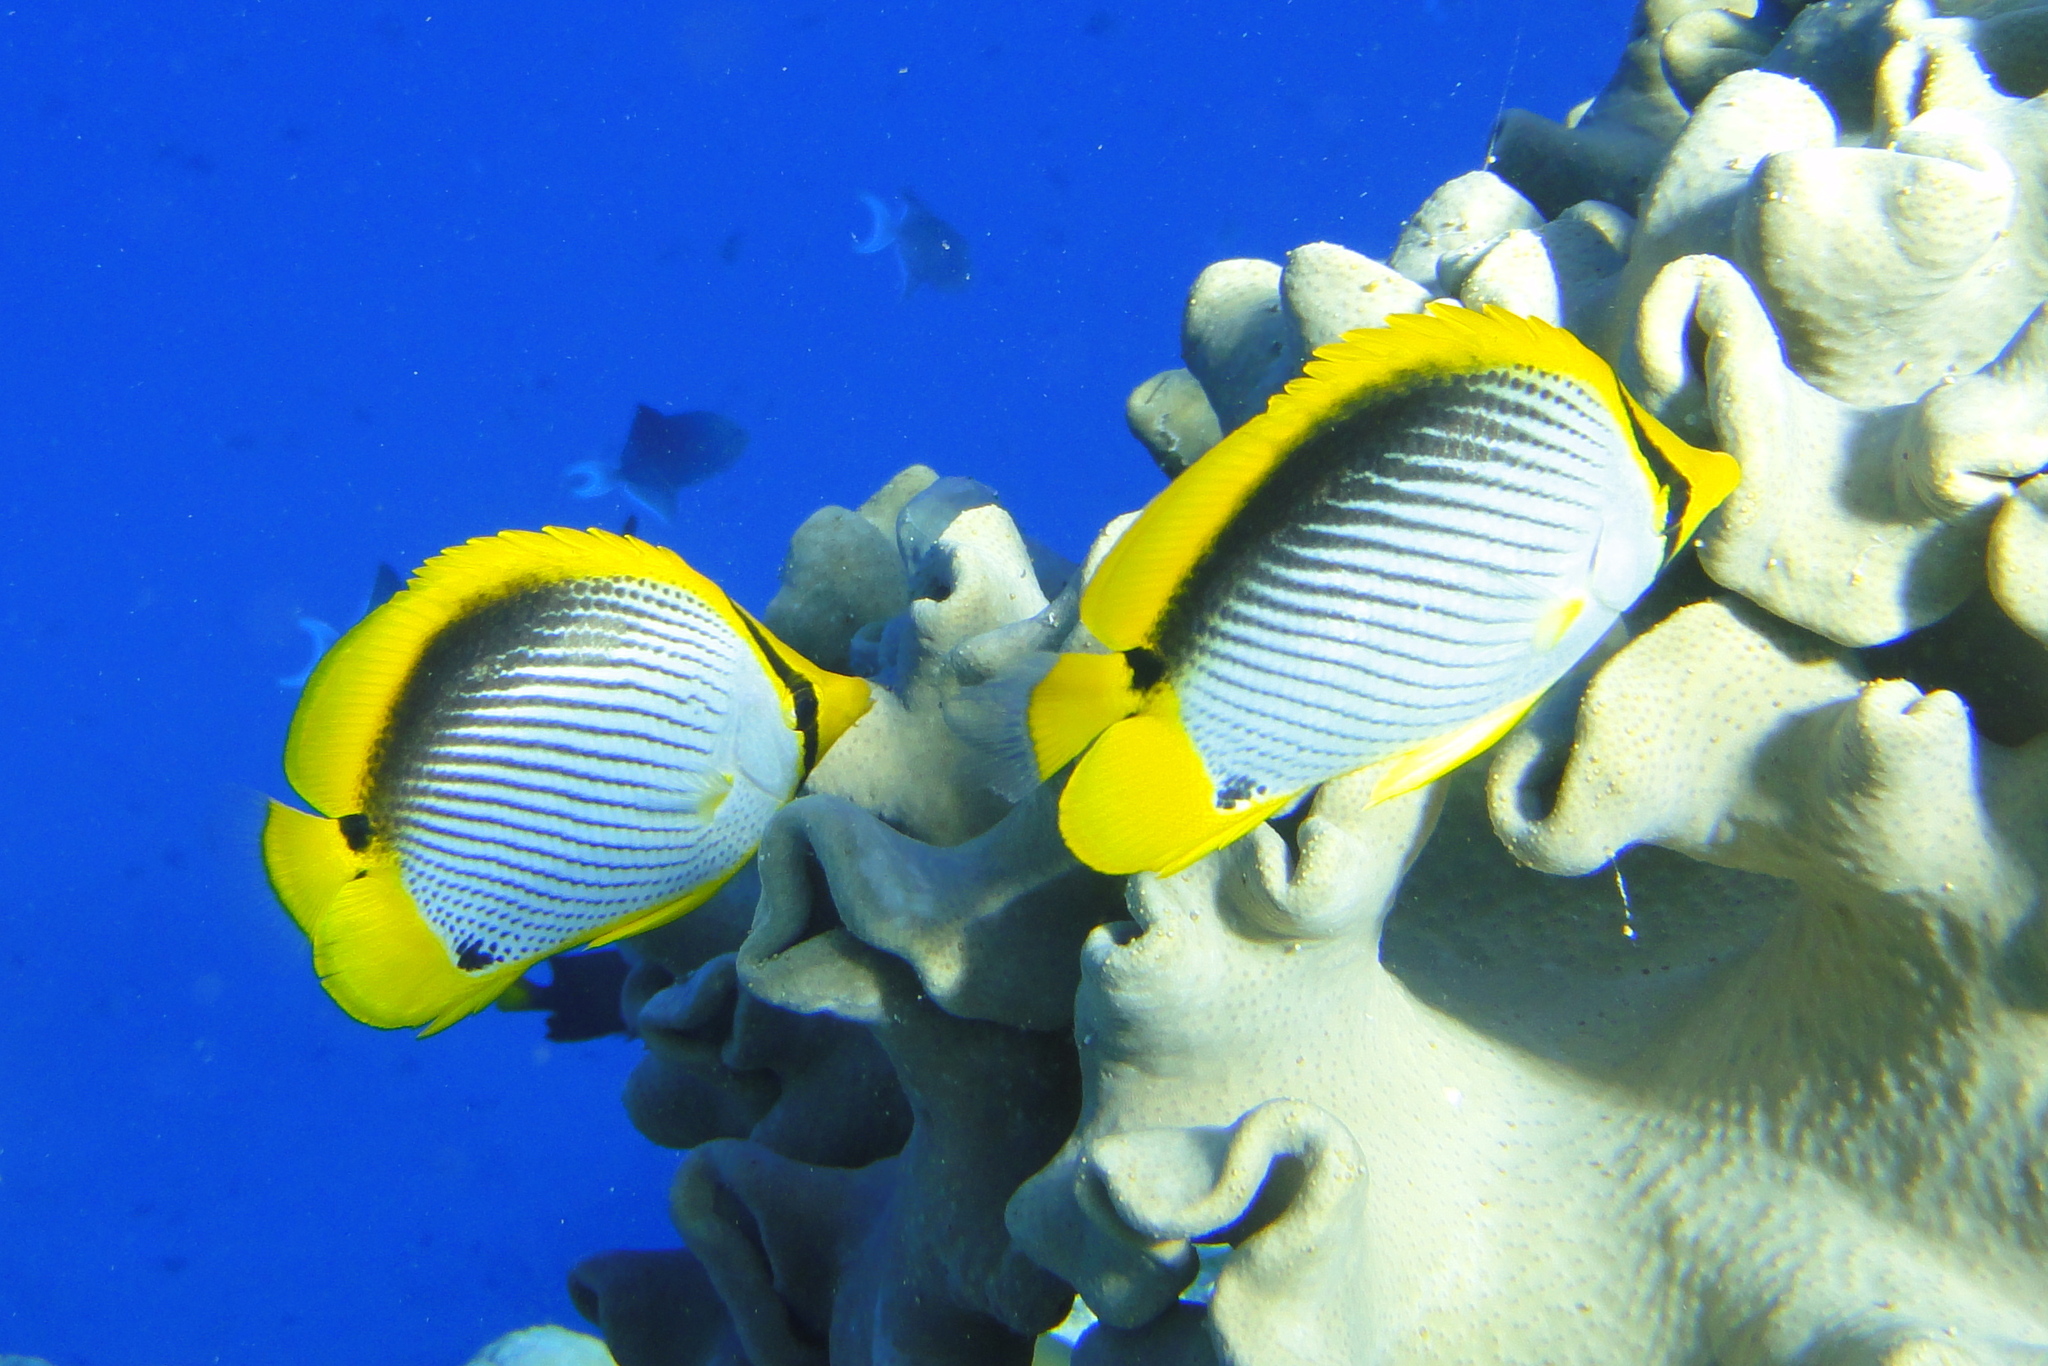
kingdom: Animalia
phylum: Chordata
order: Perciformes
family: Chaetodontidae
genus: Chaetodon
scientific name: Chaetodon melannotus
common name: Blackback butterflyfish
